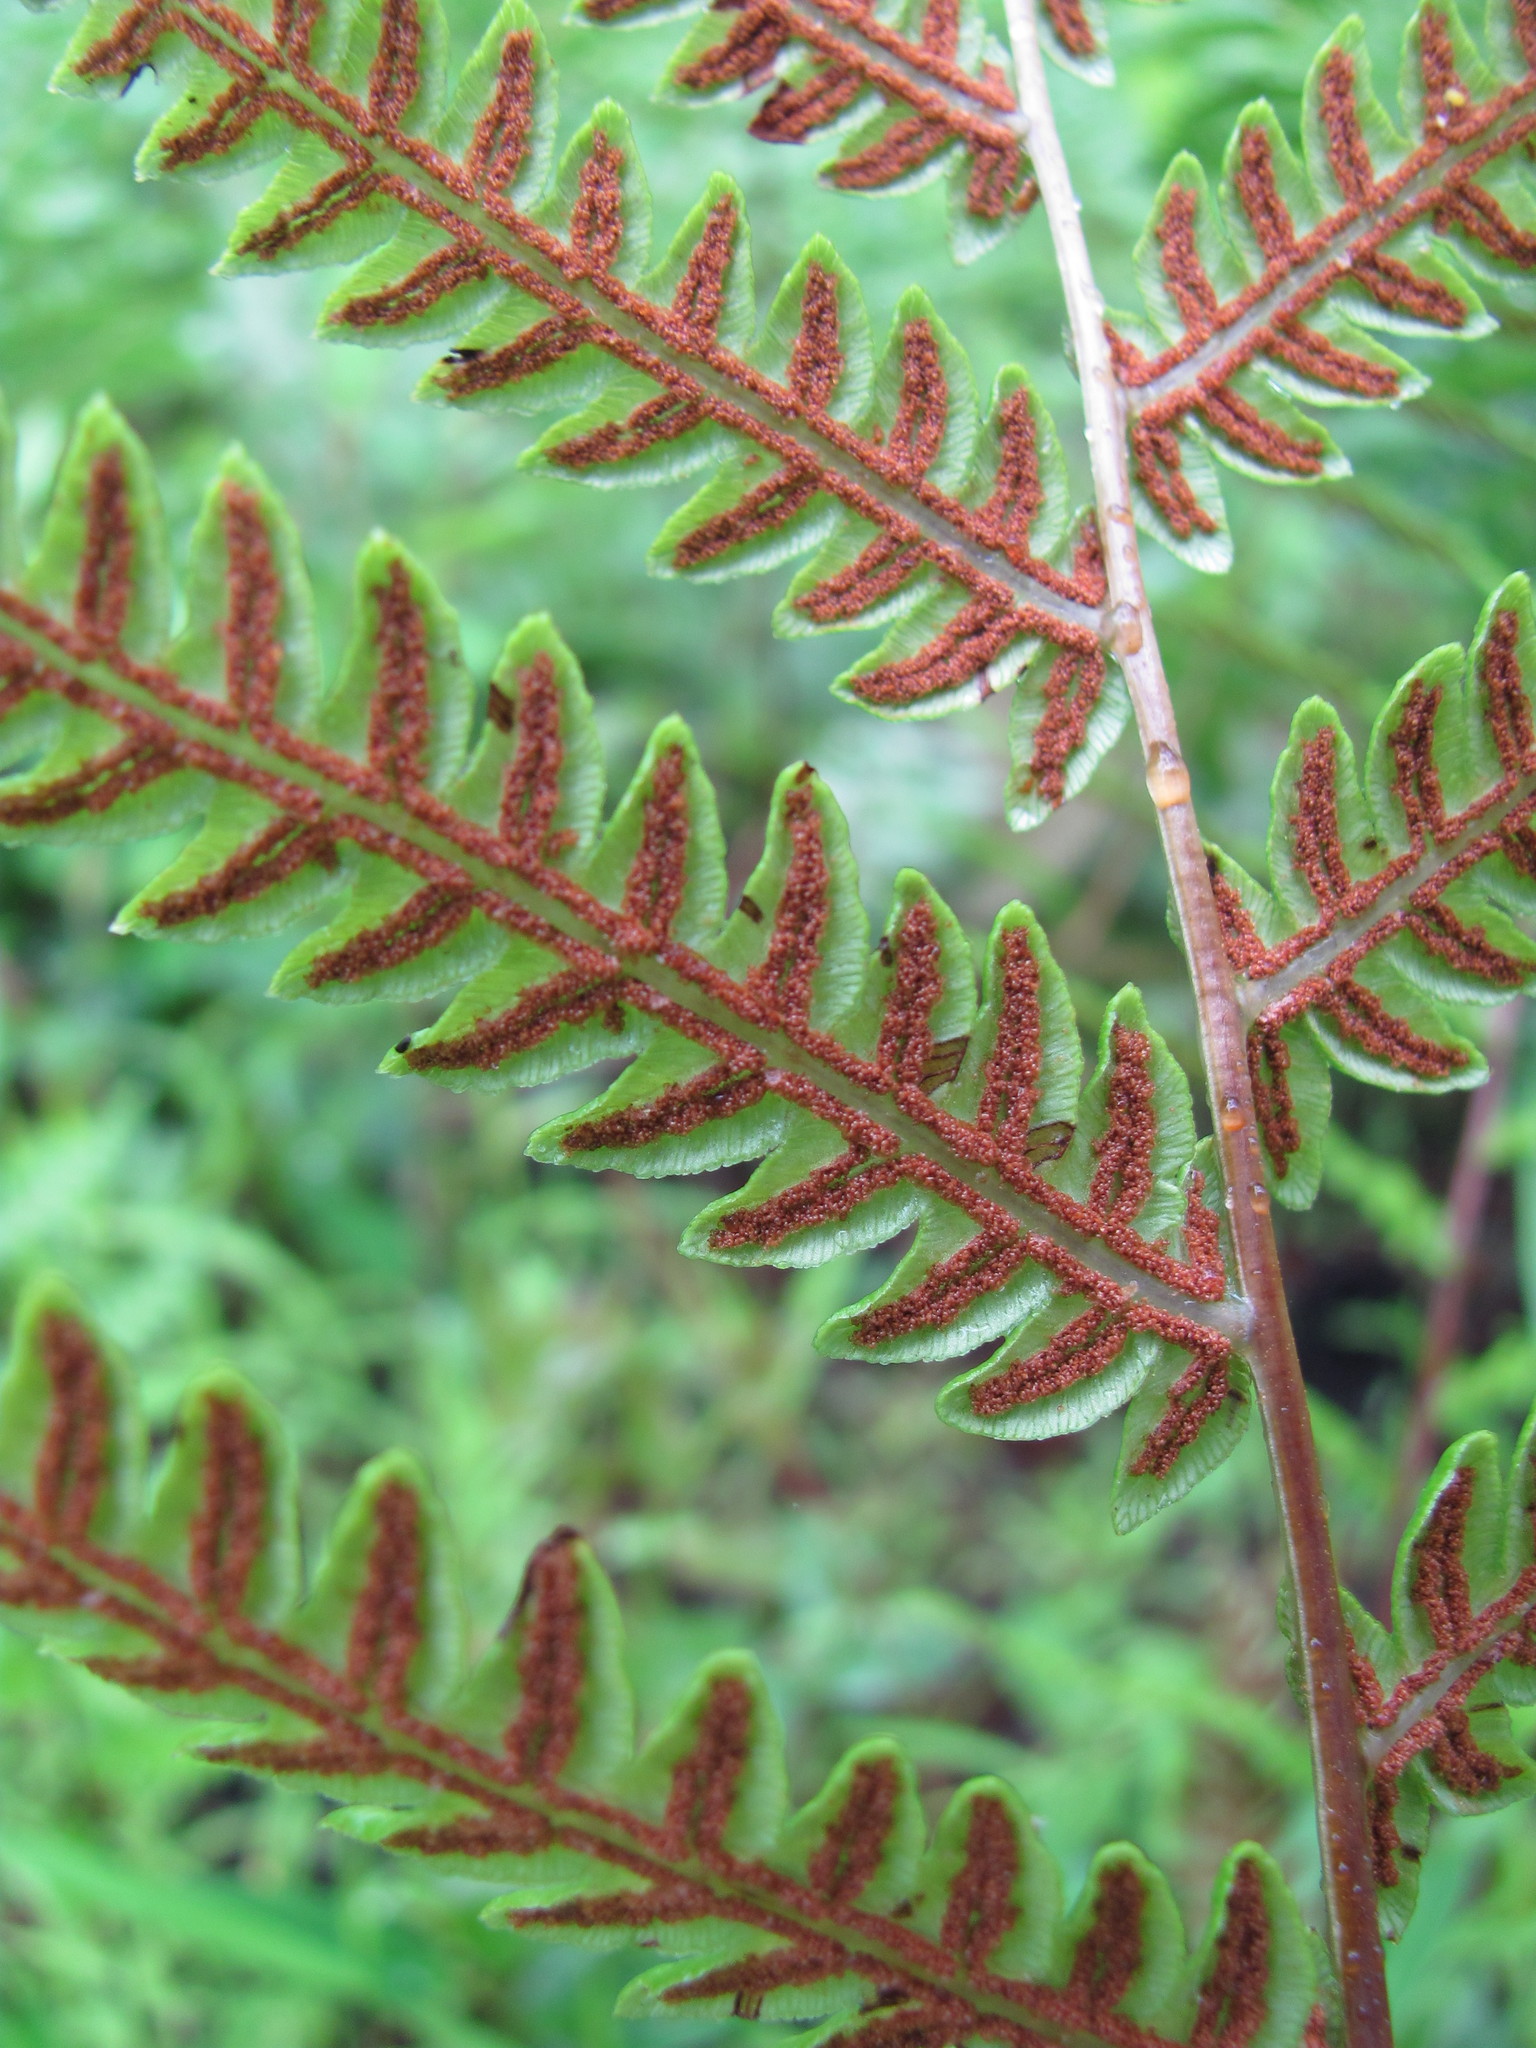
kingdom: Plantae
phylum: Tracheophyta
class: Polypodiopsida
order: Polypodiales
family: Blechnaceae
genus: Anchistea
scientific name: Anchistea virginica
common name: Virginia chain fern
